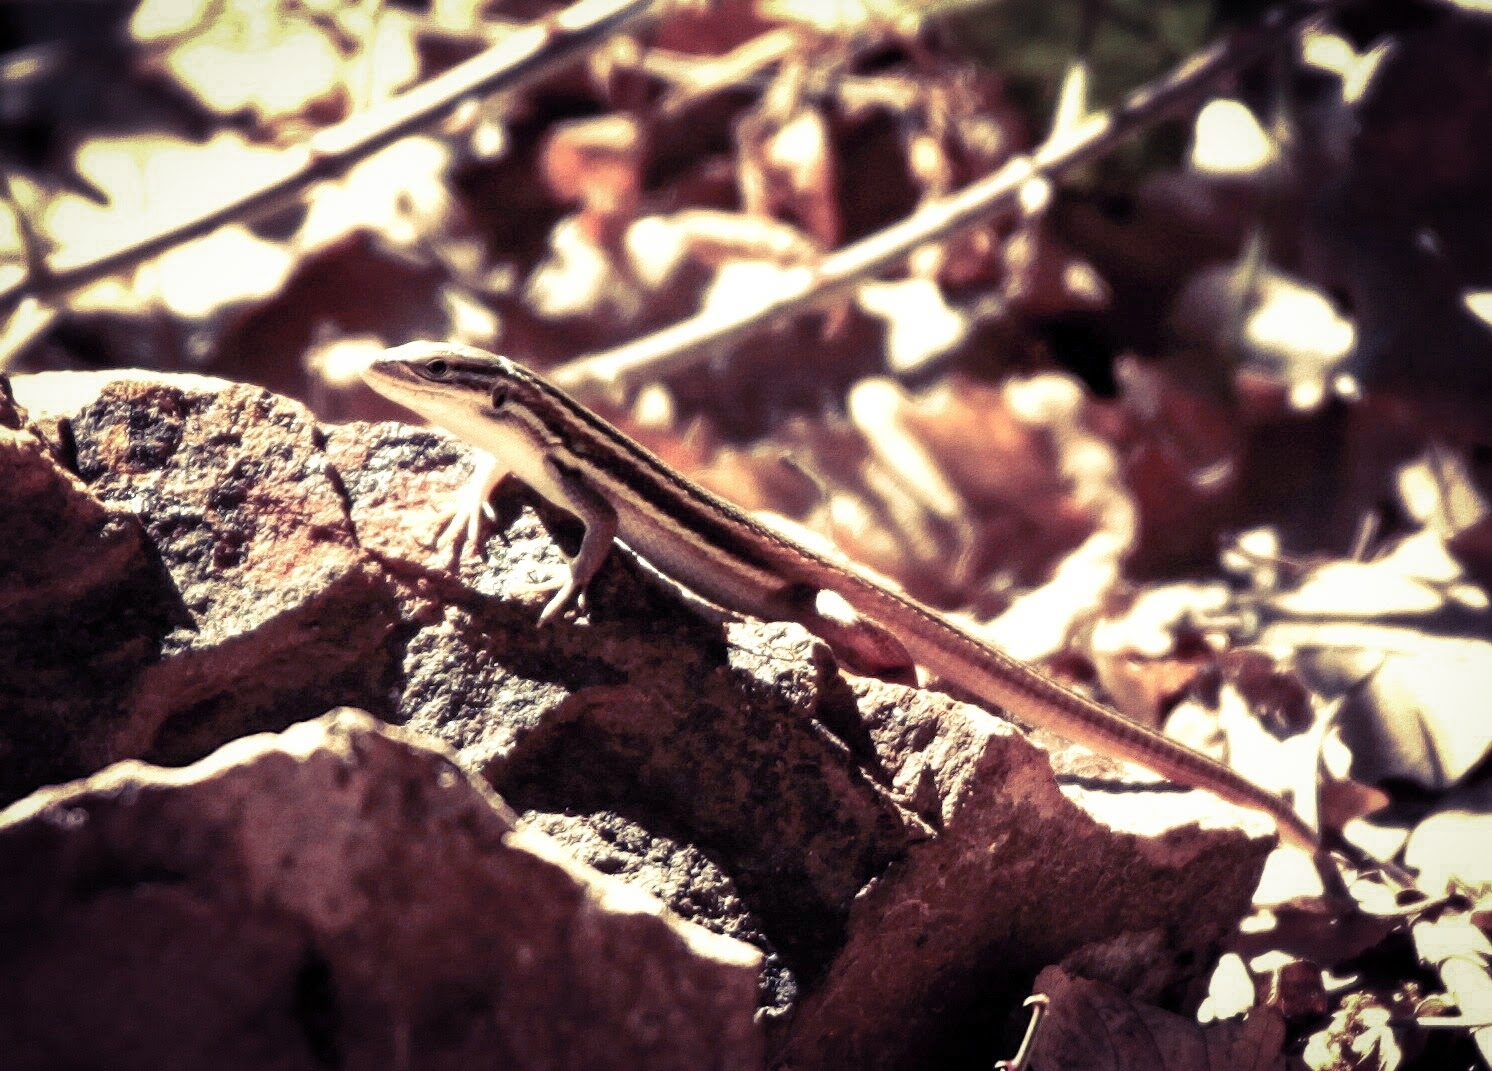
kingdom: Animalia
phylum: Chordata
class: Squamata
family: Lacertidae
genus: Psammodromus
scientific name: Psammodromus algirus
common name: Algerian psammodromus
